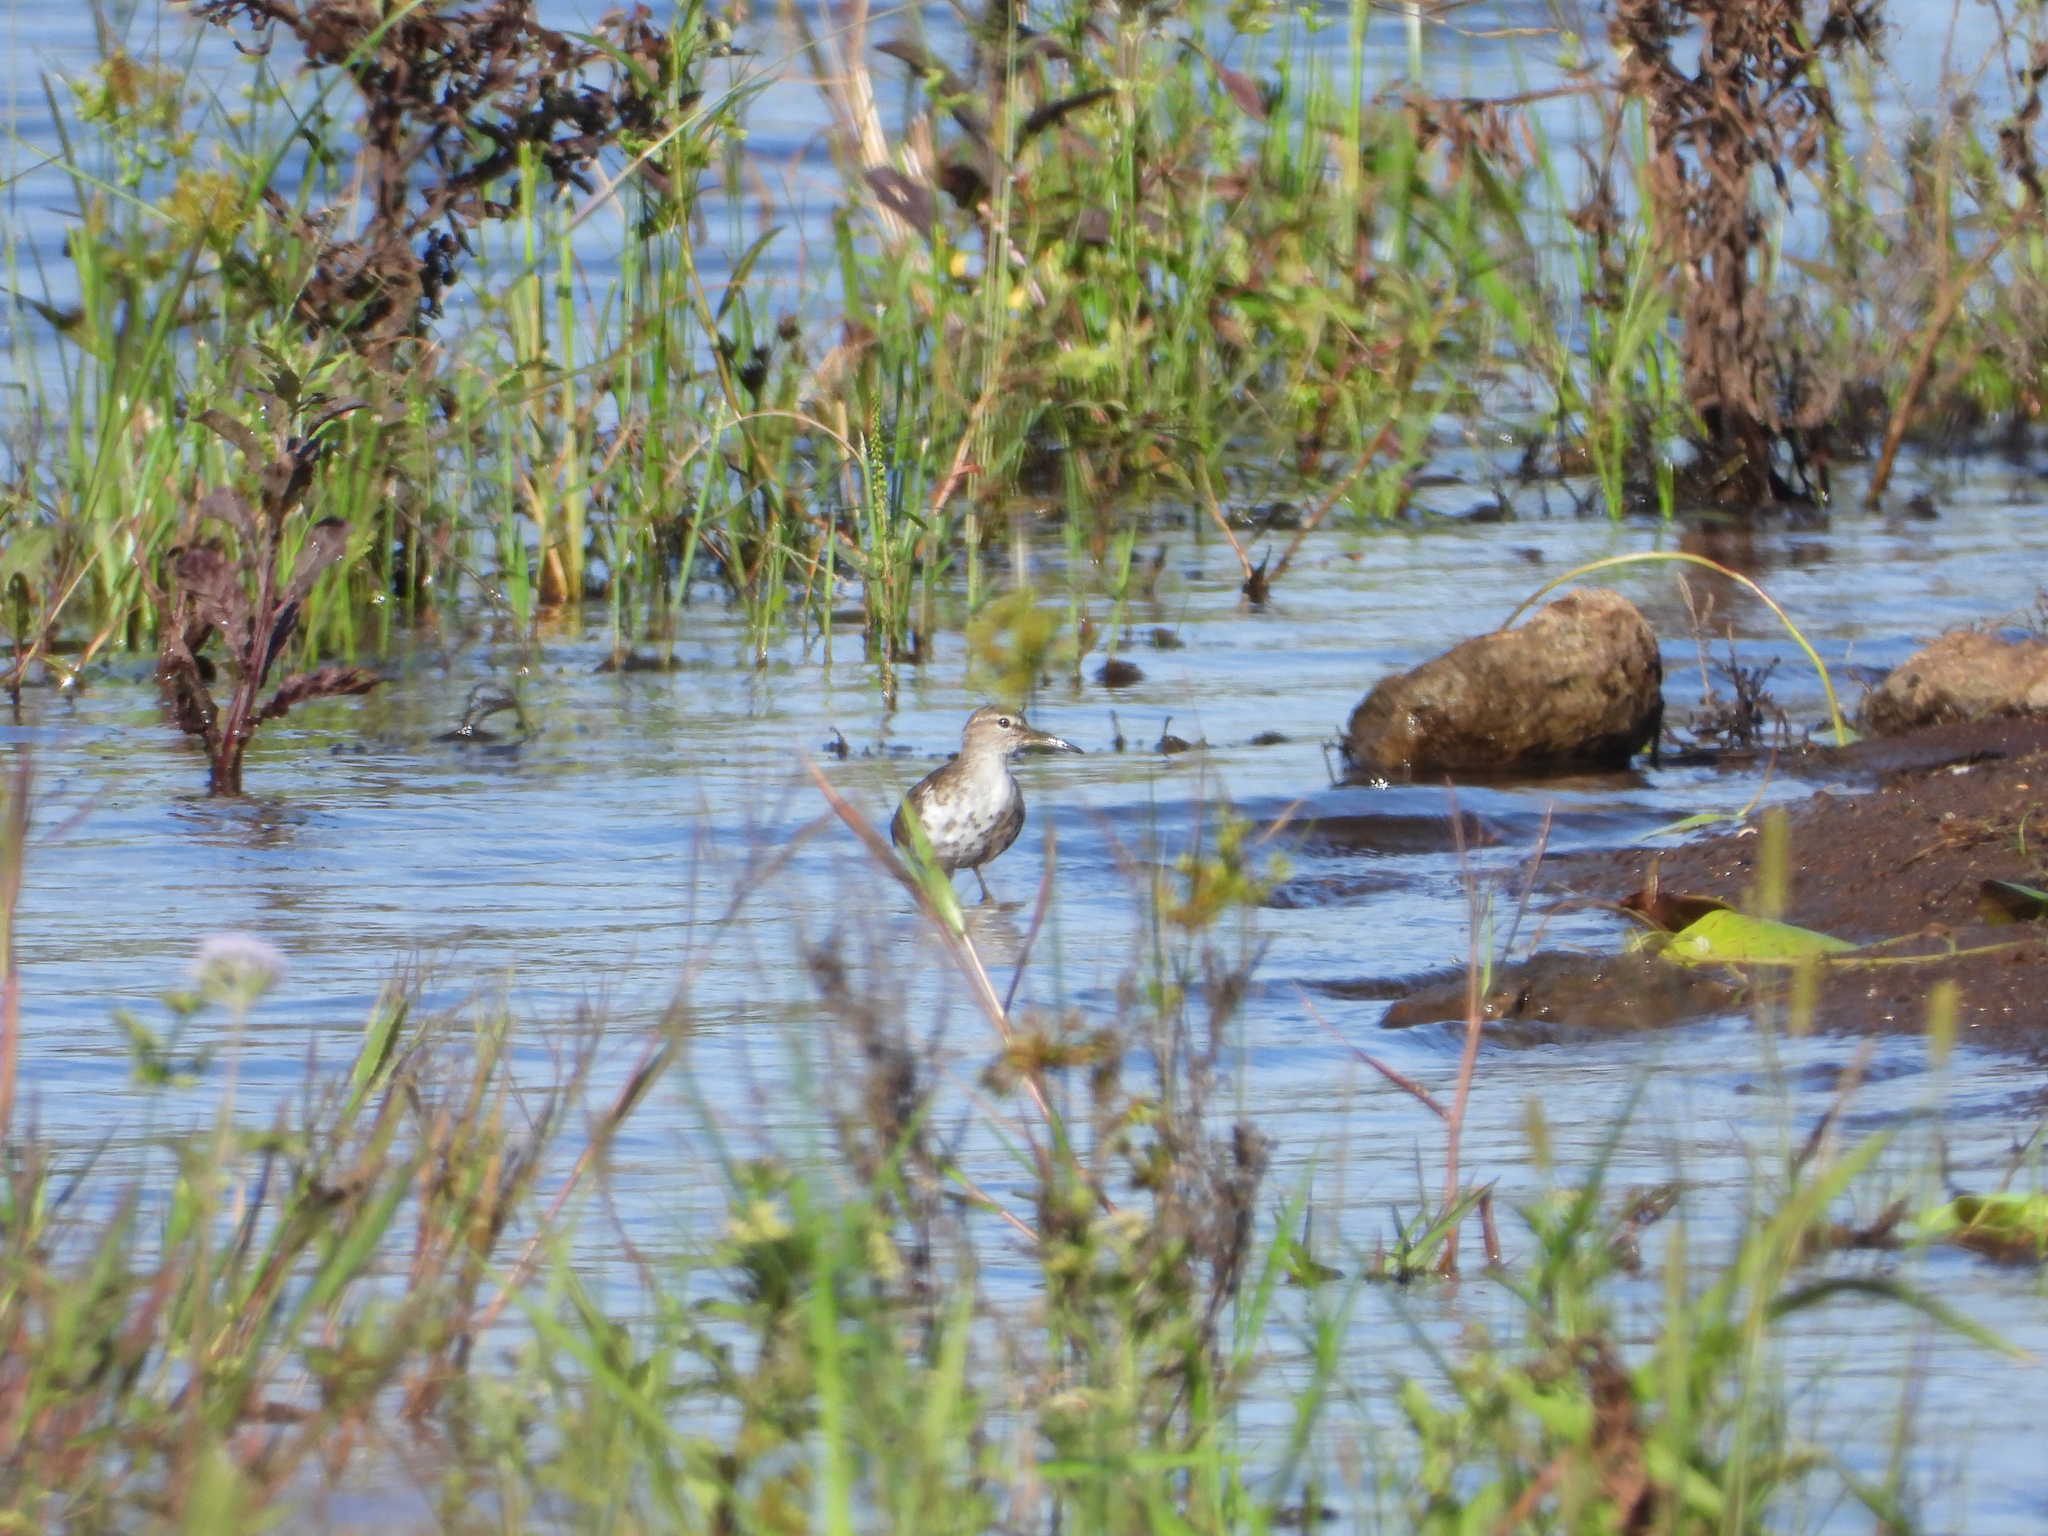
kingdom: Animalia
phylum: Chordata
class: Aves
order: Charadriiformes
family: Scolopacidae
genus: Actitis
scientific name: Actitis macularius
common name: Spotted sandpiper
